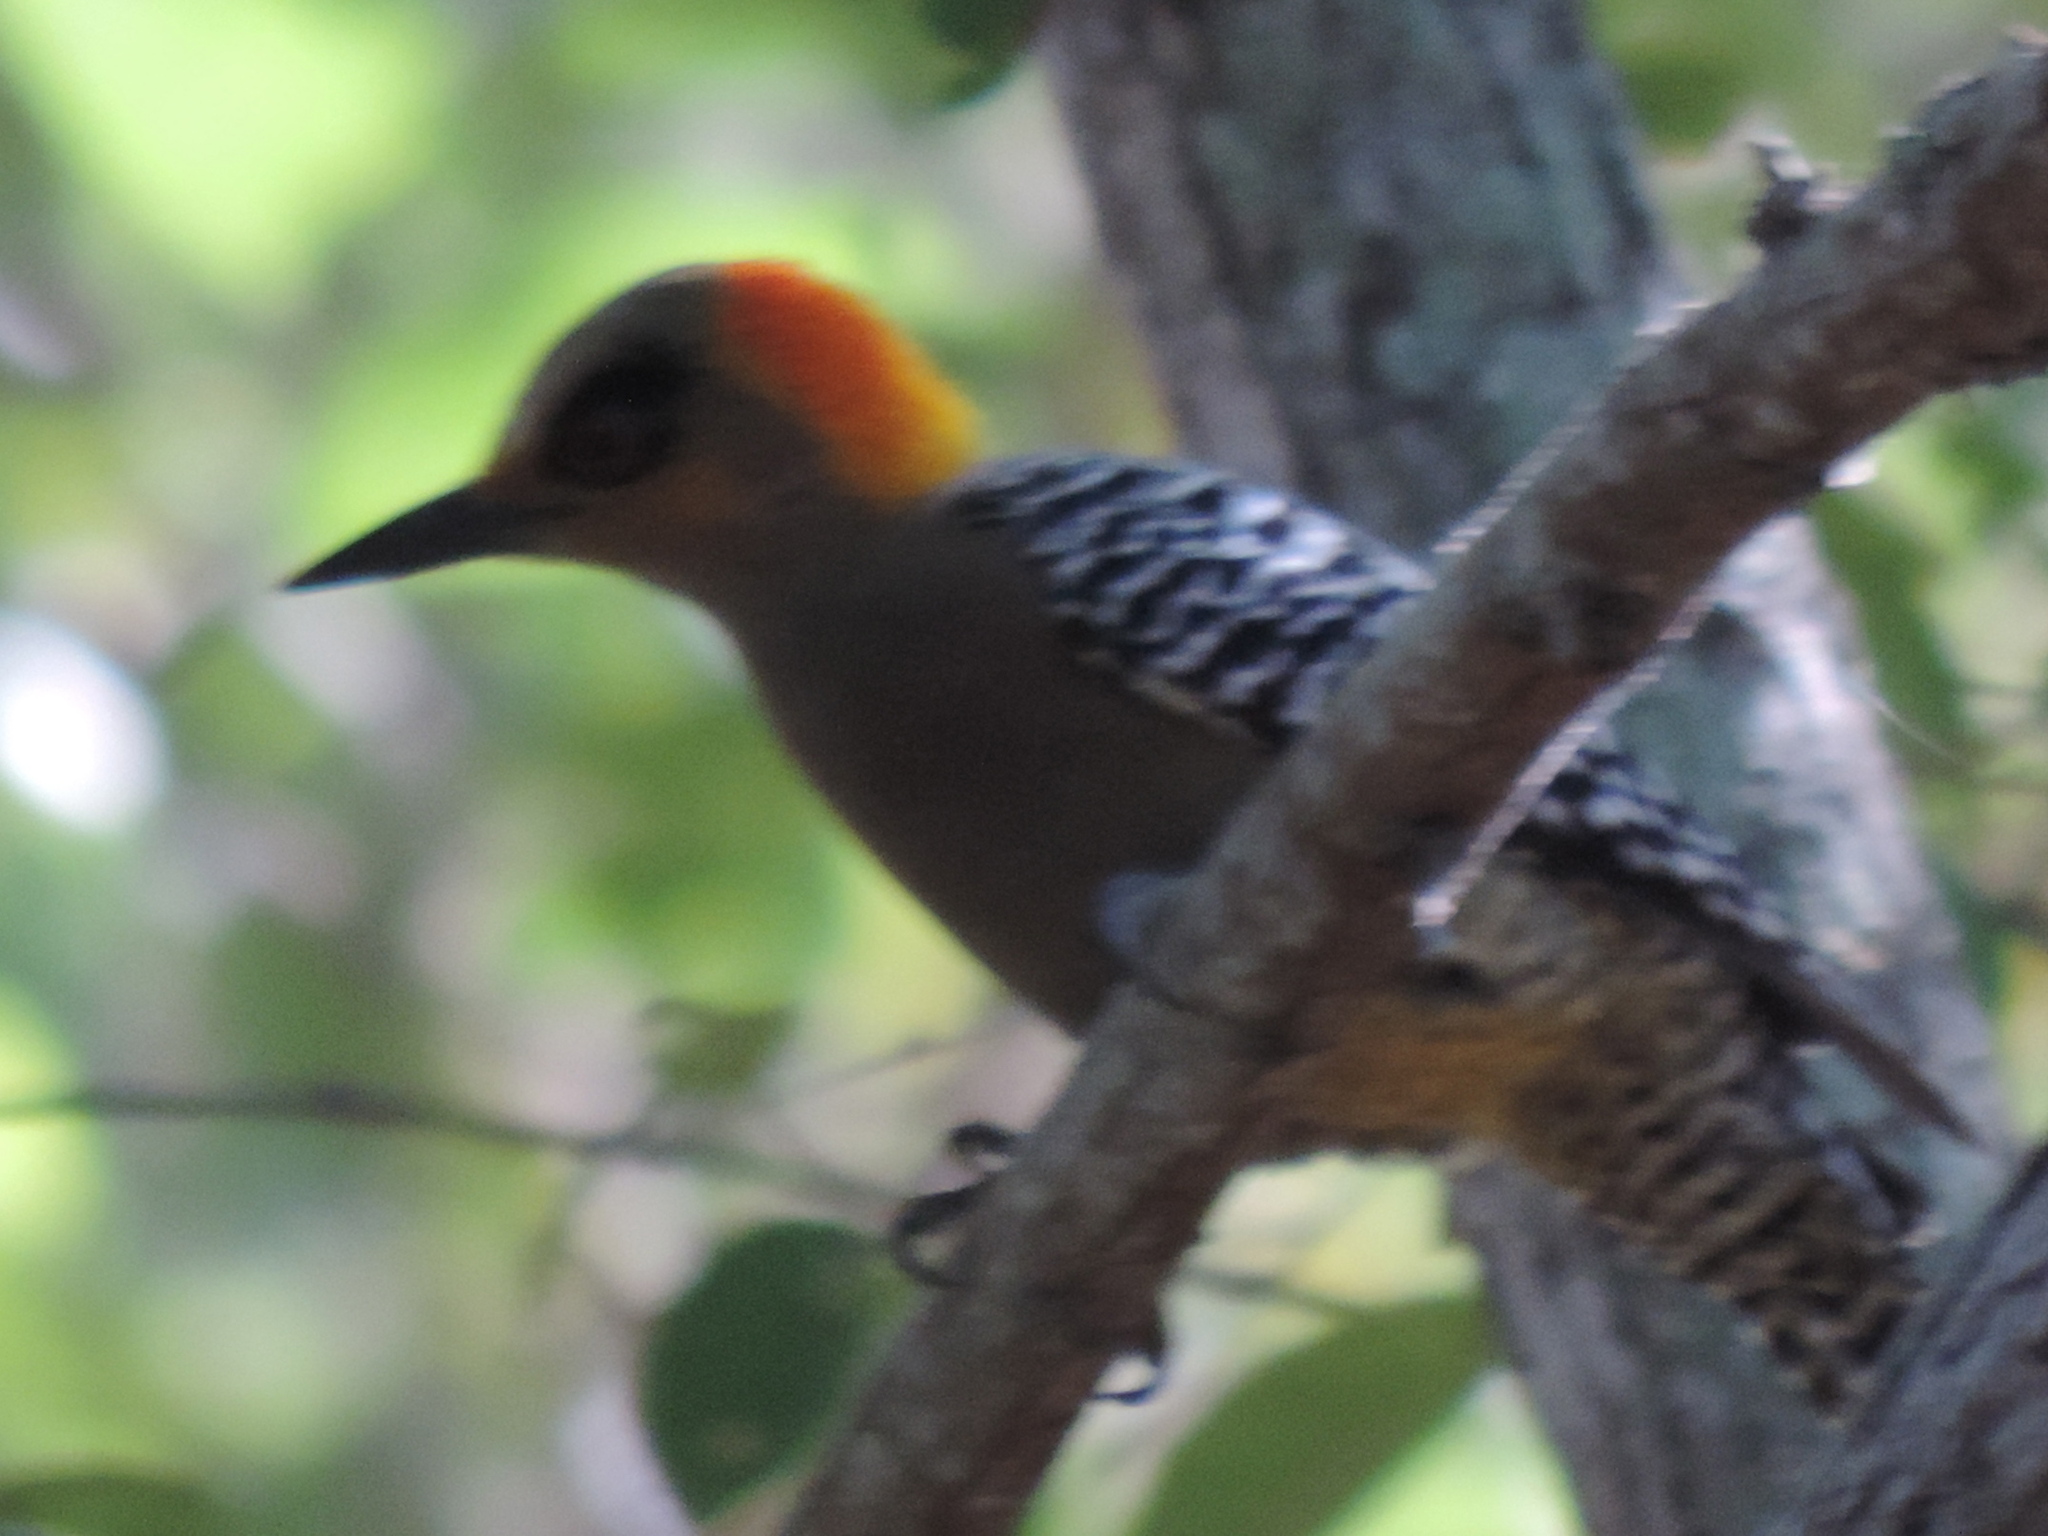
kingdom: Animalia
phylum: Chordata
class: Aves
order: Piciformes
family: Picidae
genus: Melanerpes
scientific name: Melanerpes chrysogenys
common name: Golden-cheeked woodpecker
